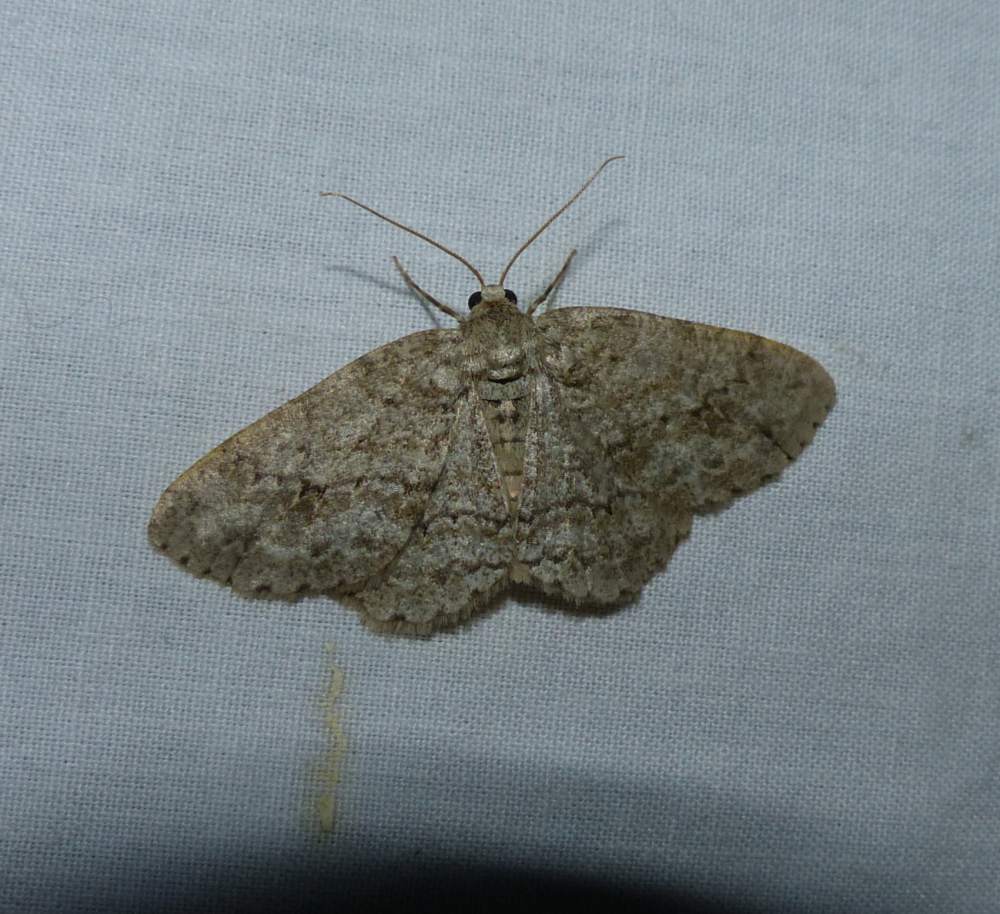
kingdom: Animalia
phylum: Arthropoda
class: Insecta
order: Lepidoptera
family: Geometridae
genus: Ectropis
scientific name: Ectropis crepuscularia
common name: Engrailed
